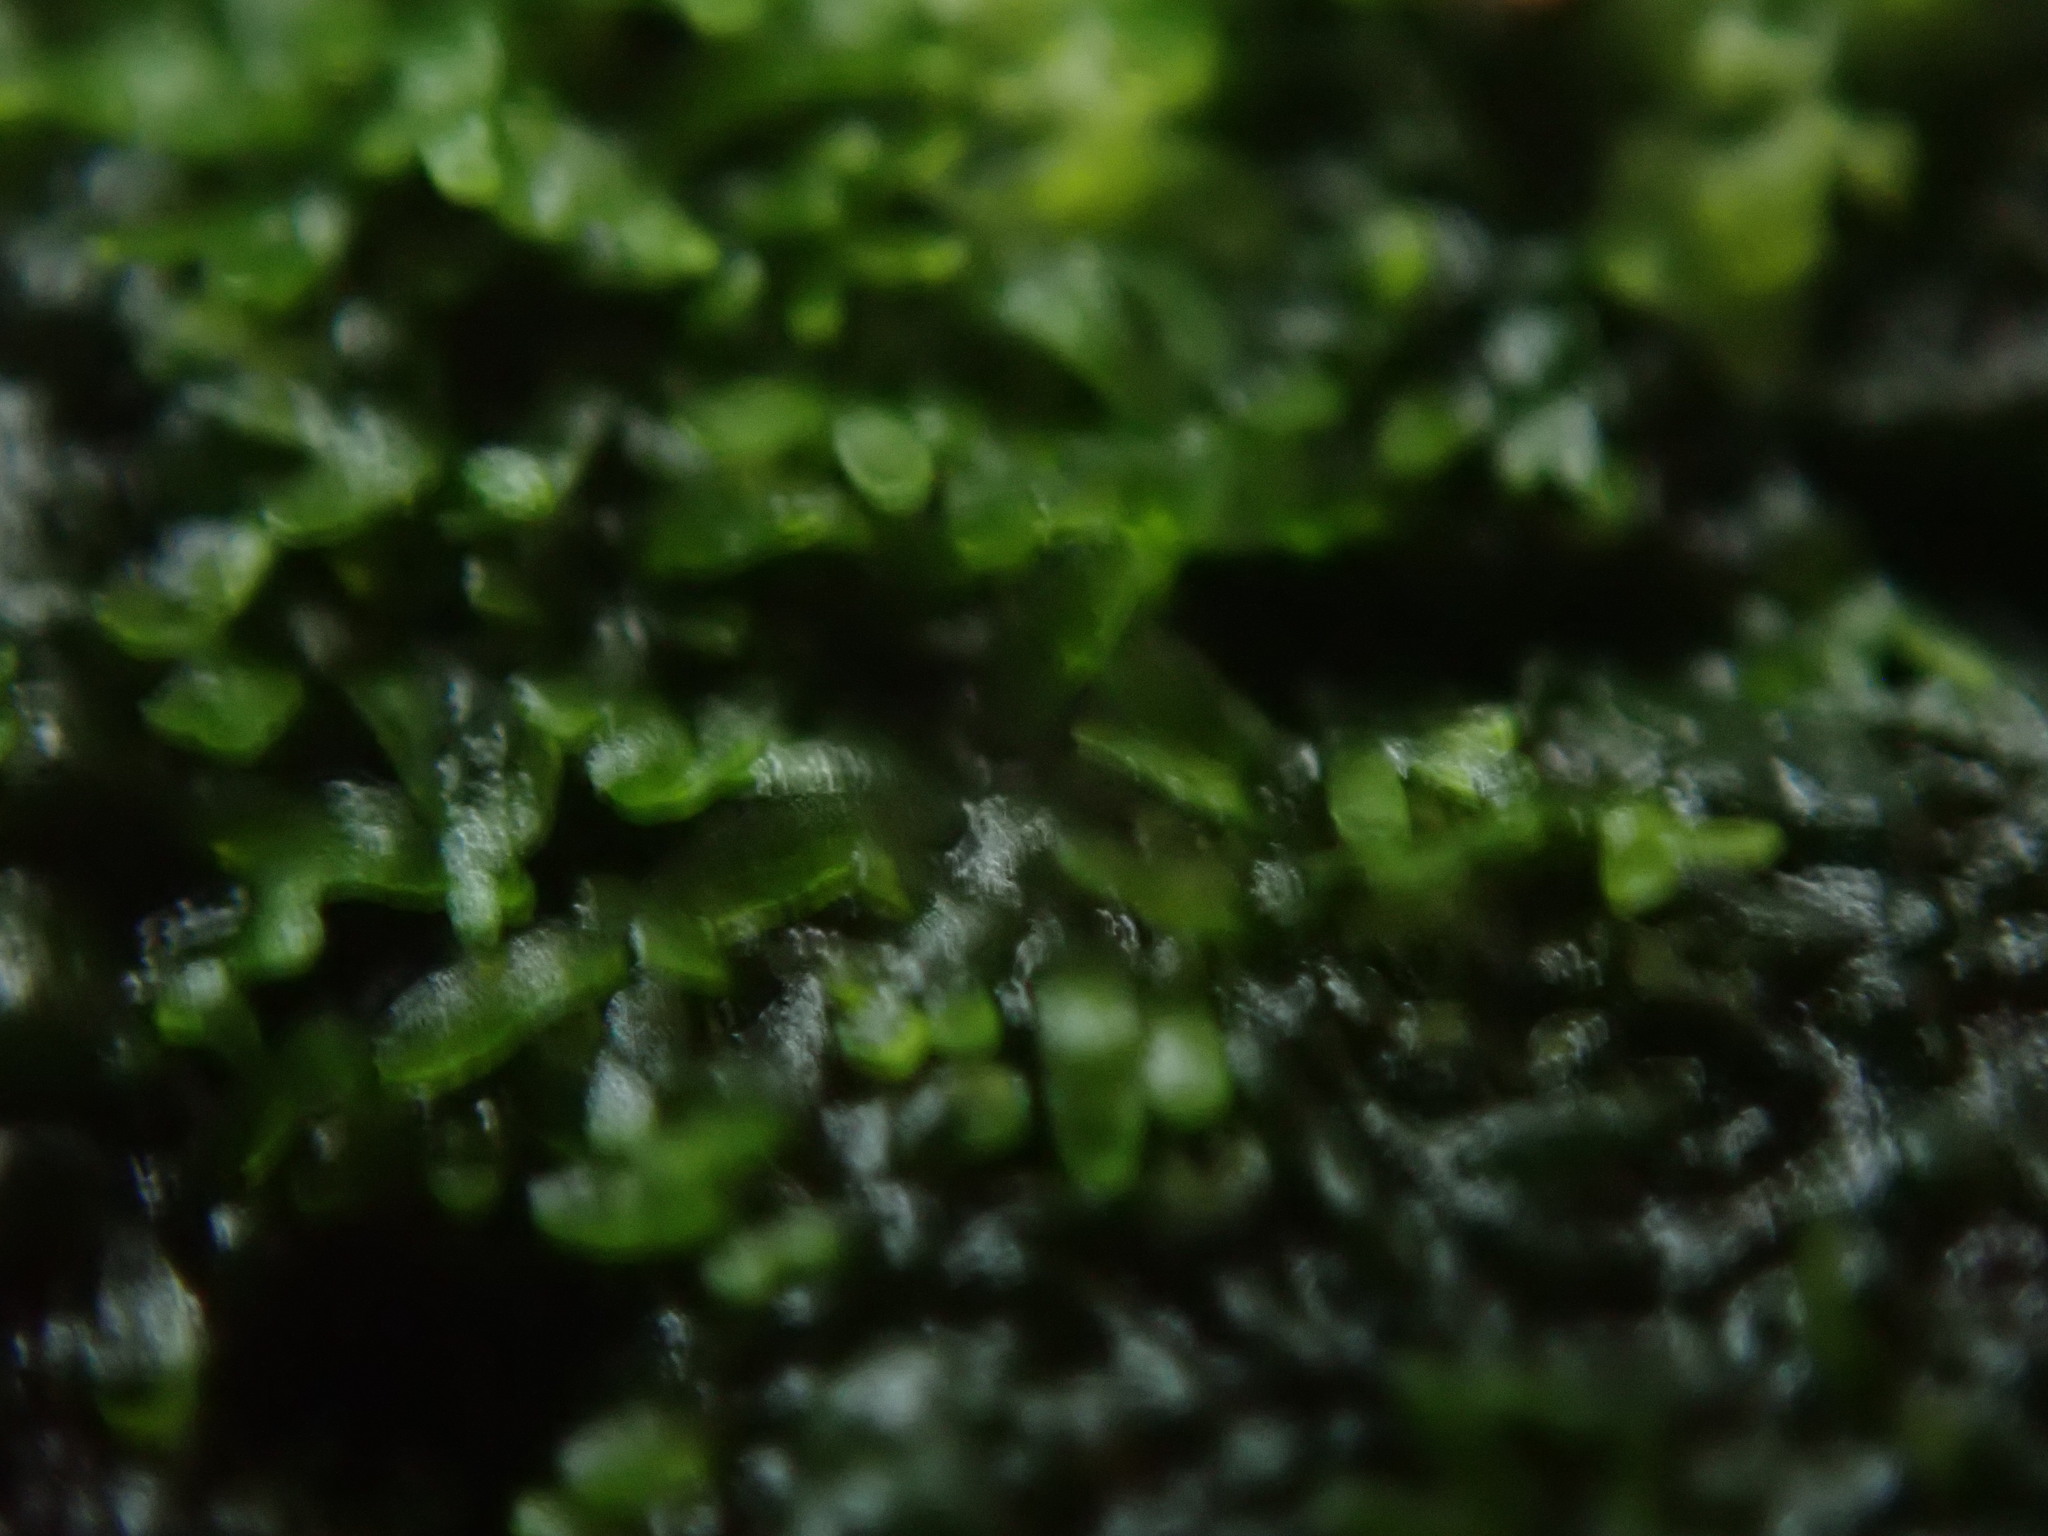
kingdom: Plantae
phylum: Marchantiophyta
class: Jungermanniopsida
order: Metzgeriales
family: Aneuraceae
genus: Riccardia
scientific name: Riccardia chamedryfolia
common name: Jagged germanderwort
